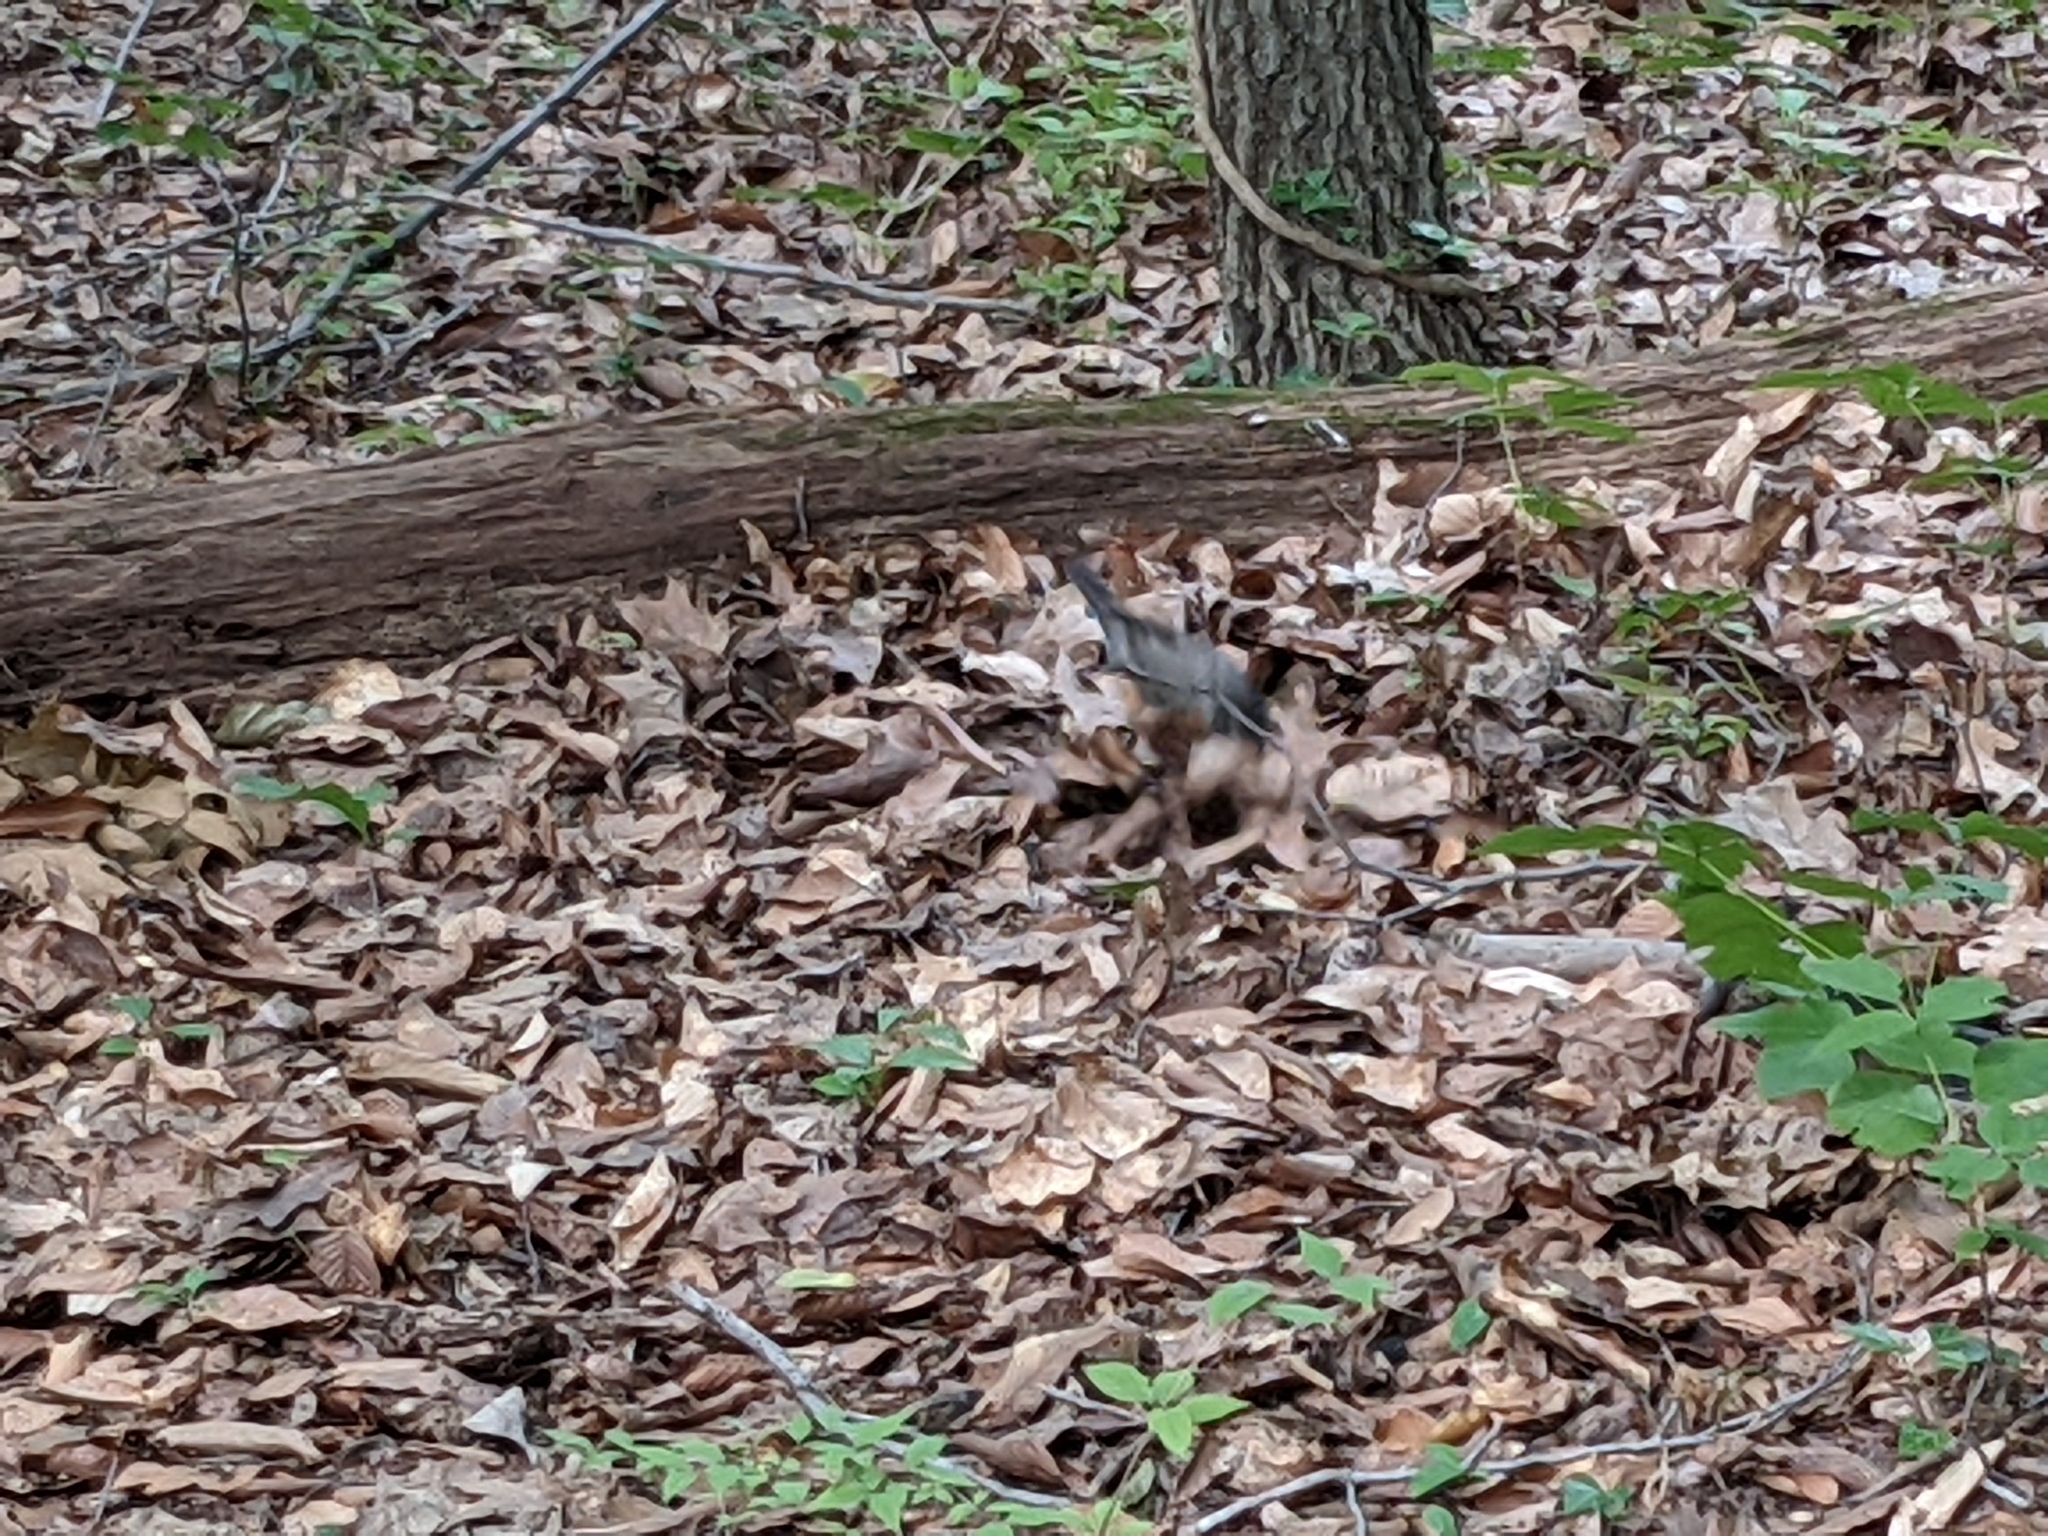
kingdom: Animalia
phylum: Chordata
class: Aves
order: Passeriformes
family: Turdidae
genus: Turdus
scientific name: Turdus migratorius
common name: American robin
